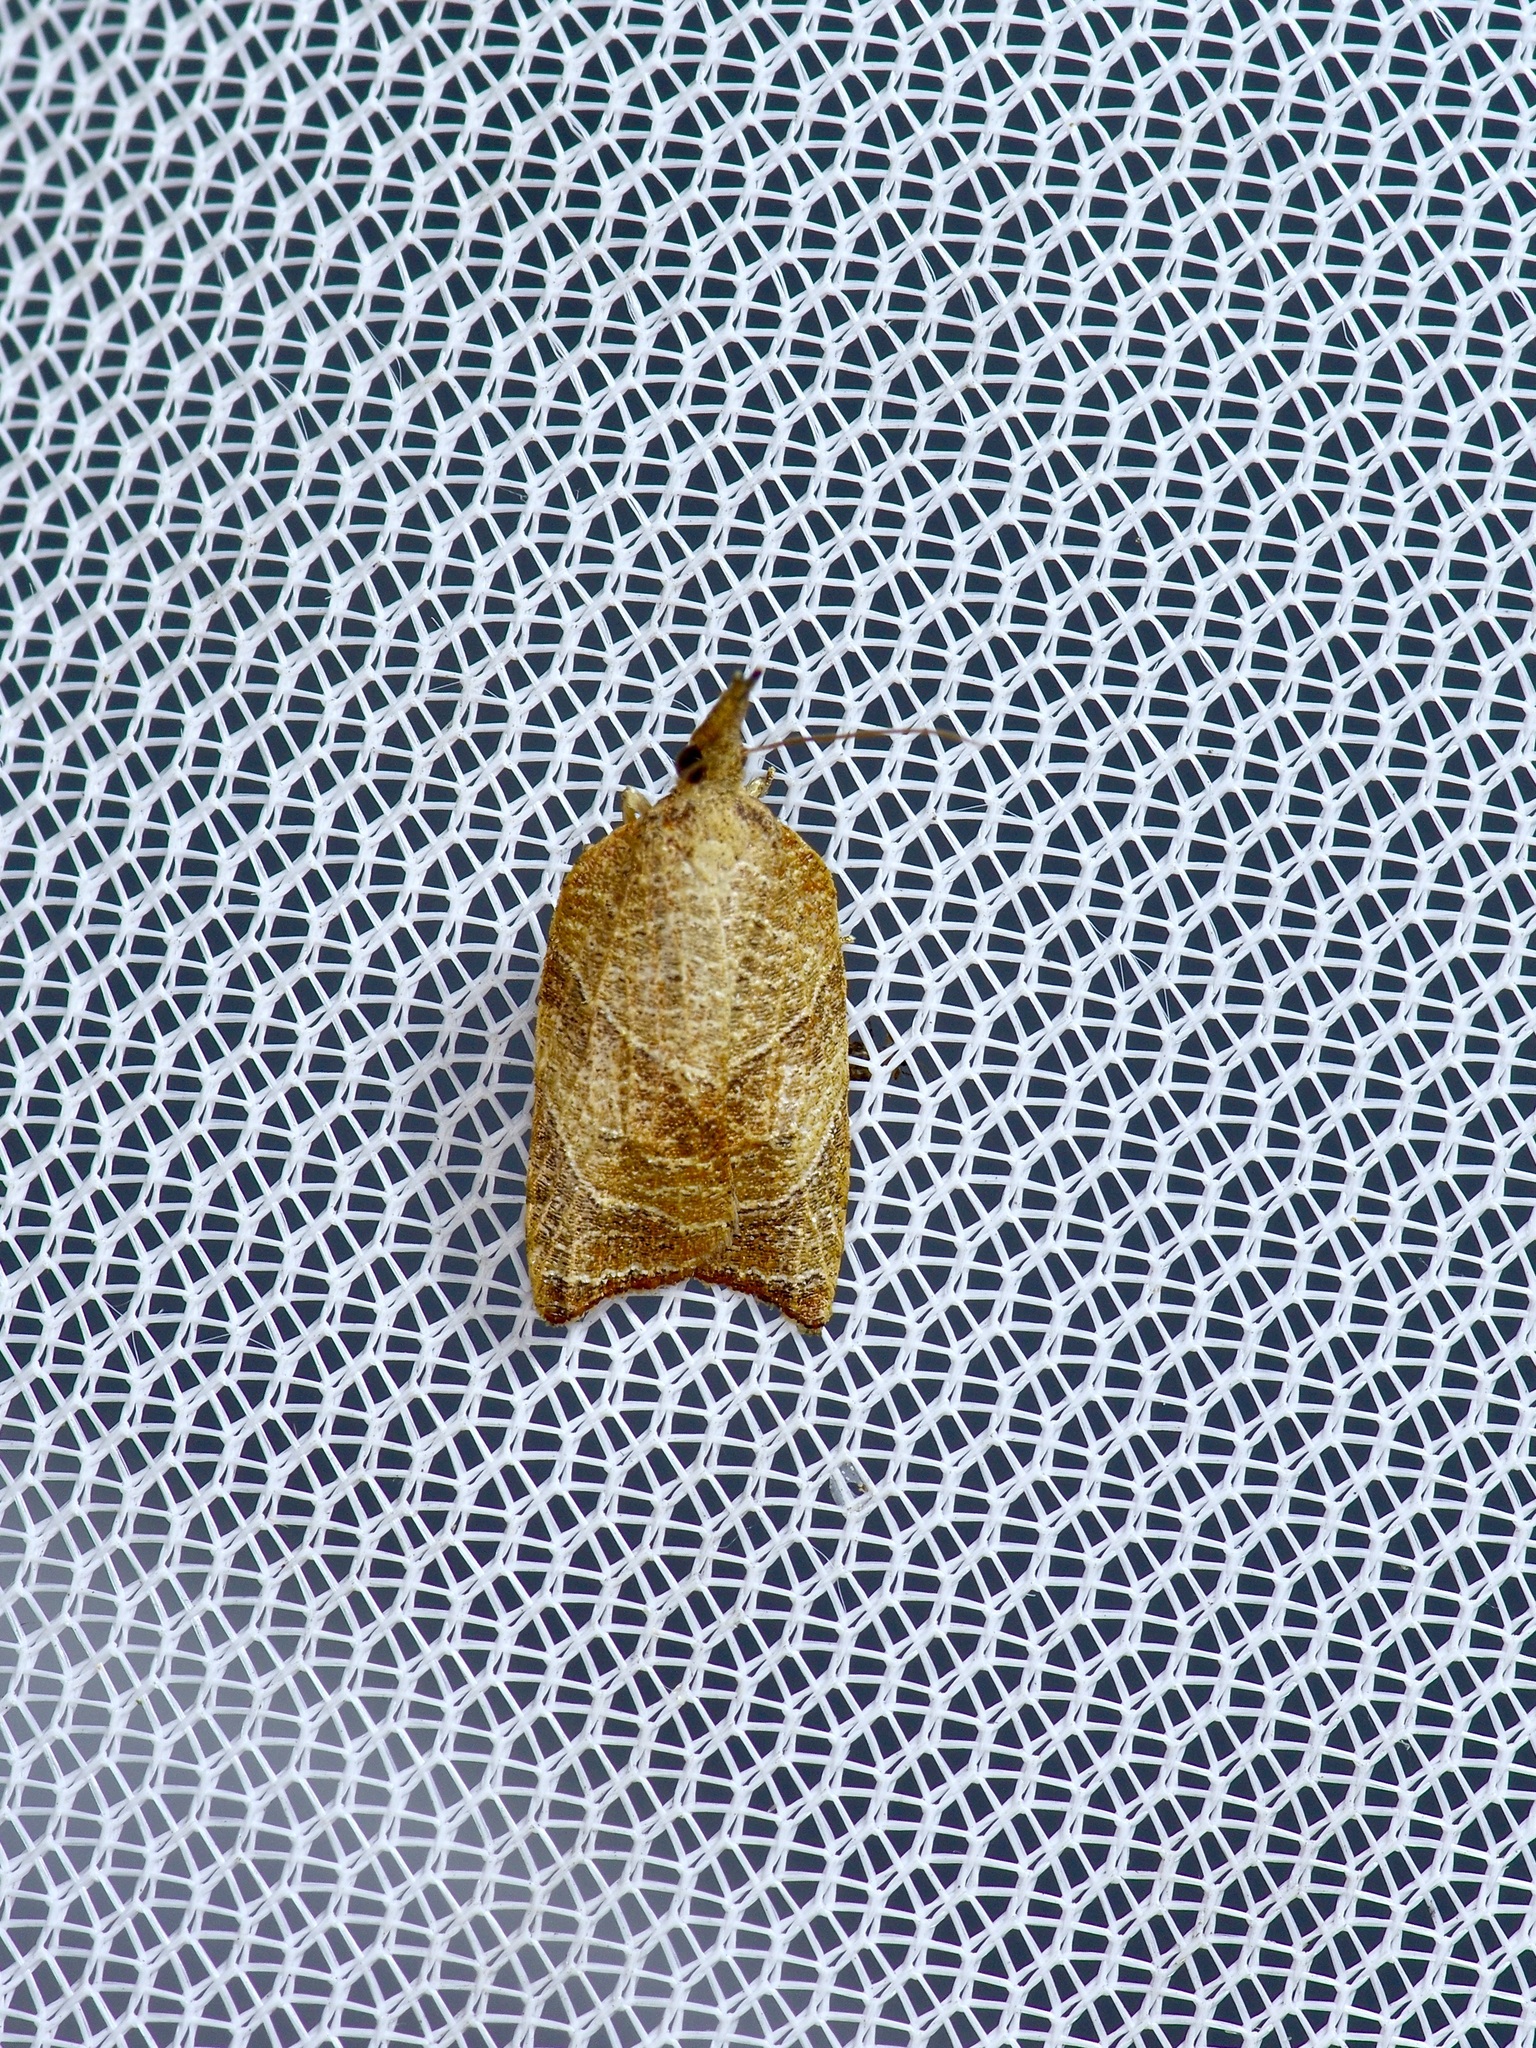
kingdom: Animalia
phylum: Arthropoda
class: Insecta
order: Lepidoptera
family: Tortricidae
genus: Platynota
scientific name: Platynota rostrana
